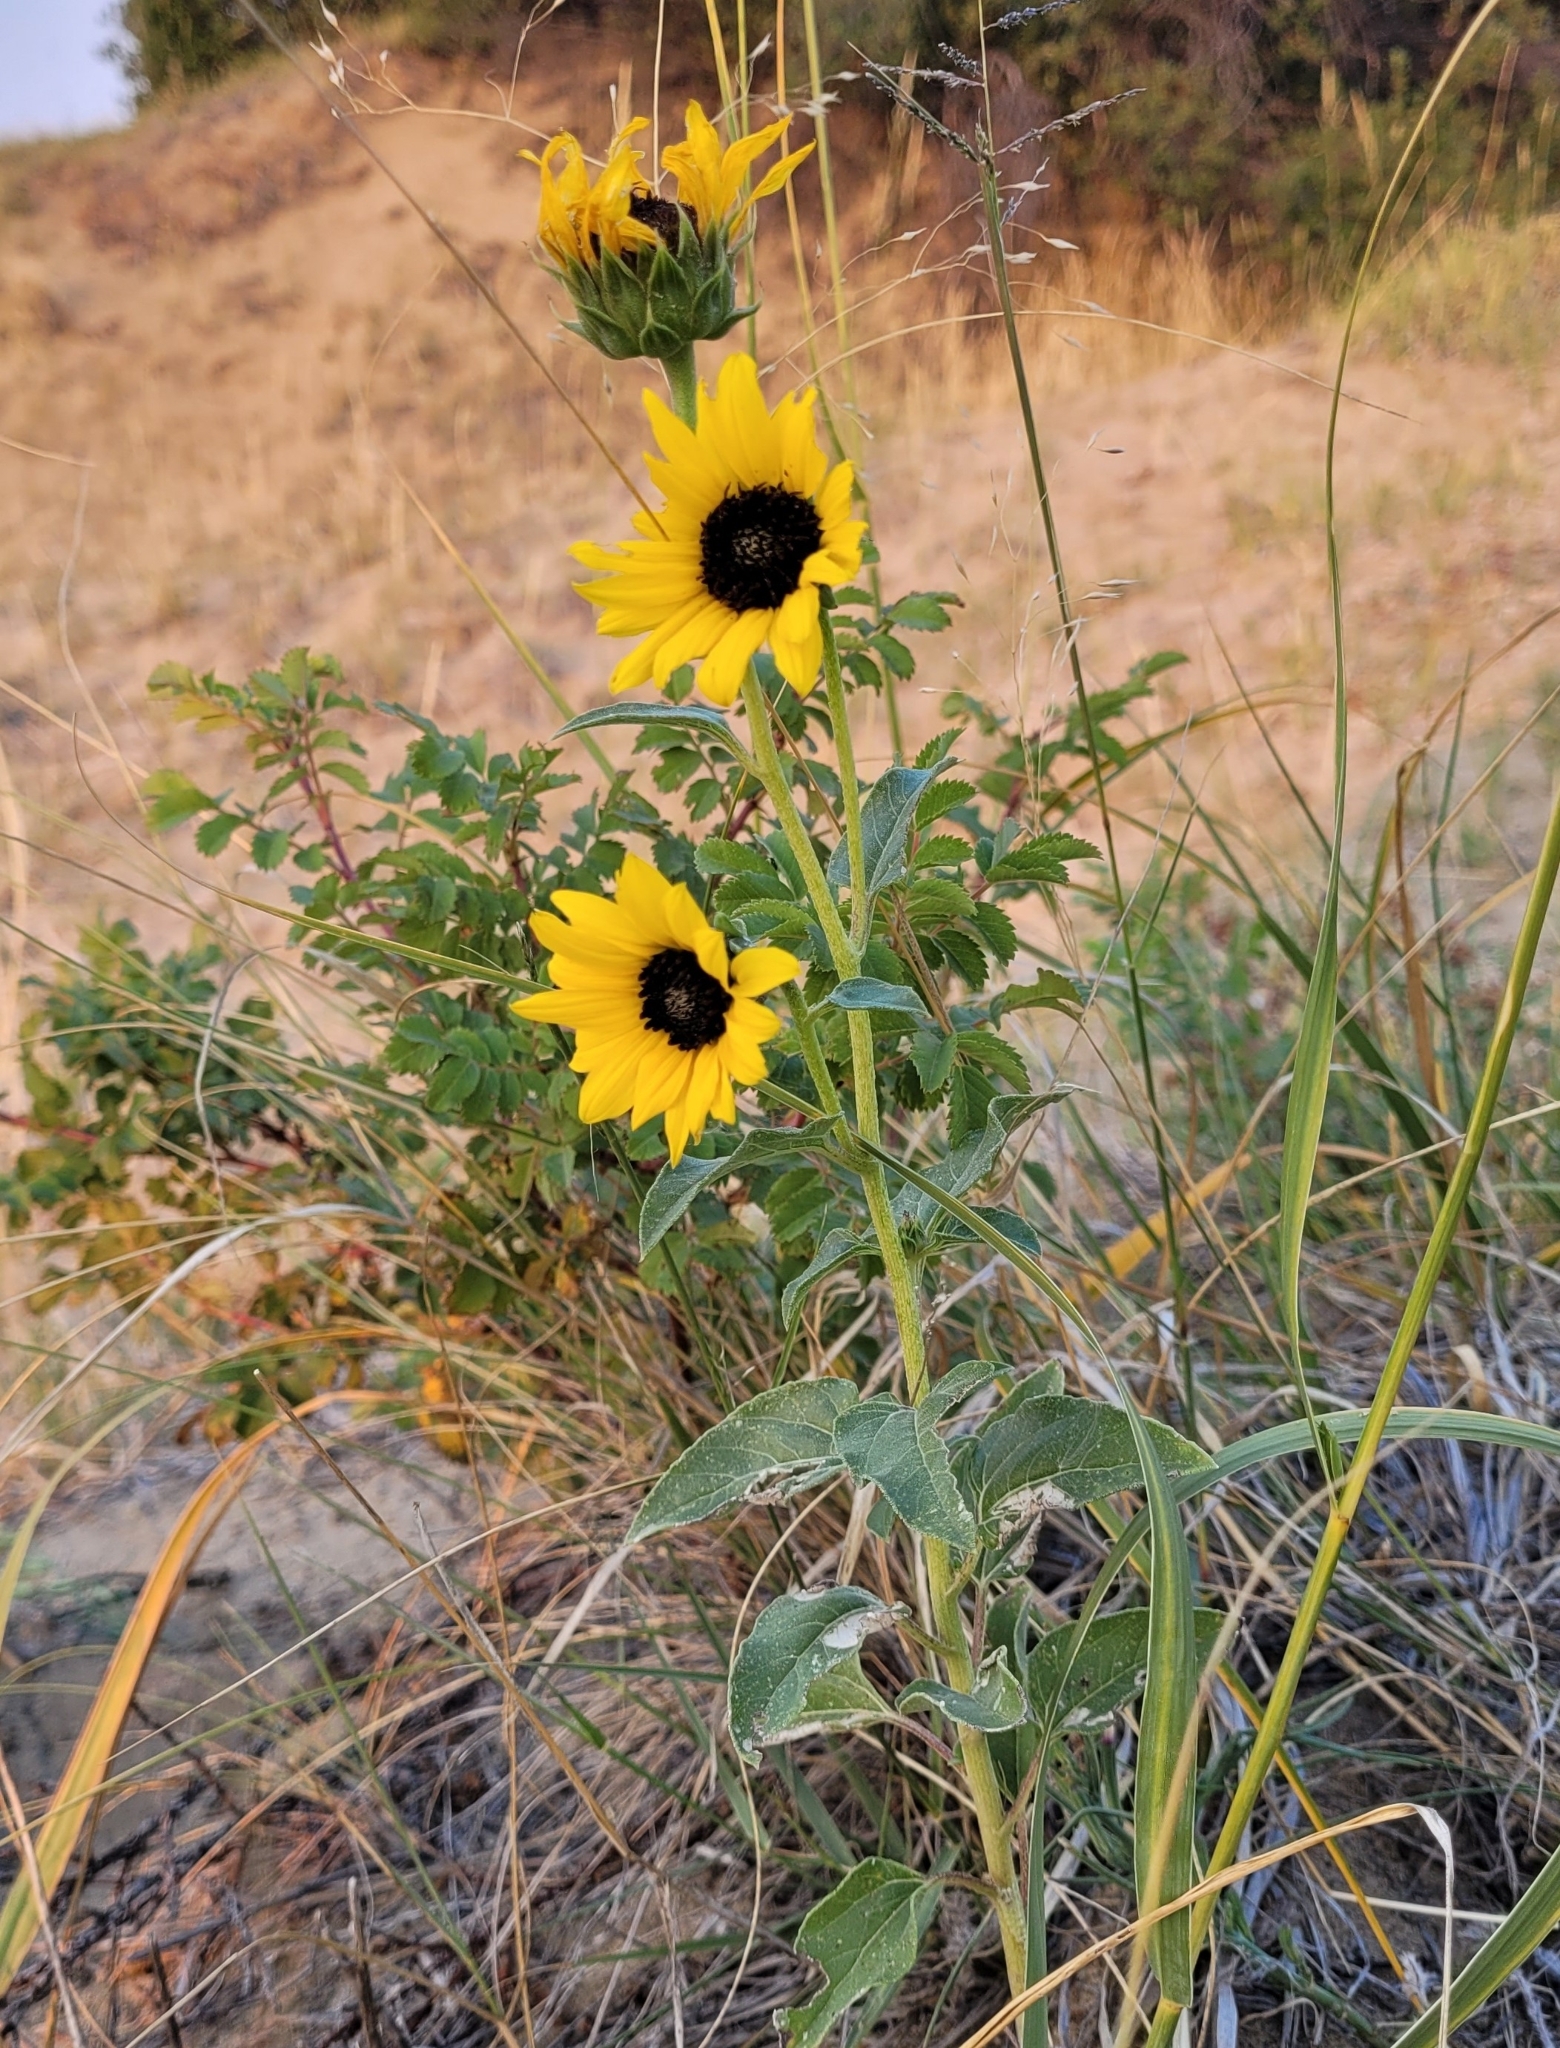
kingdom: Plantae
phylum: Tracheophyta
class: Magnoliopsida
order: Asterales
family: Asteraceae
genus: Helianthus
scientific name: Helianthus petiolaris
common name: Lesser sunflower
